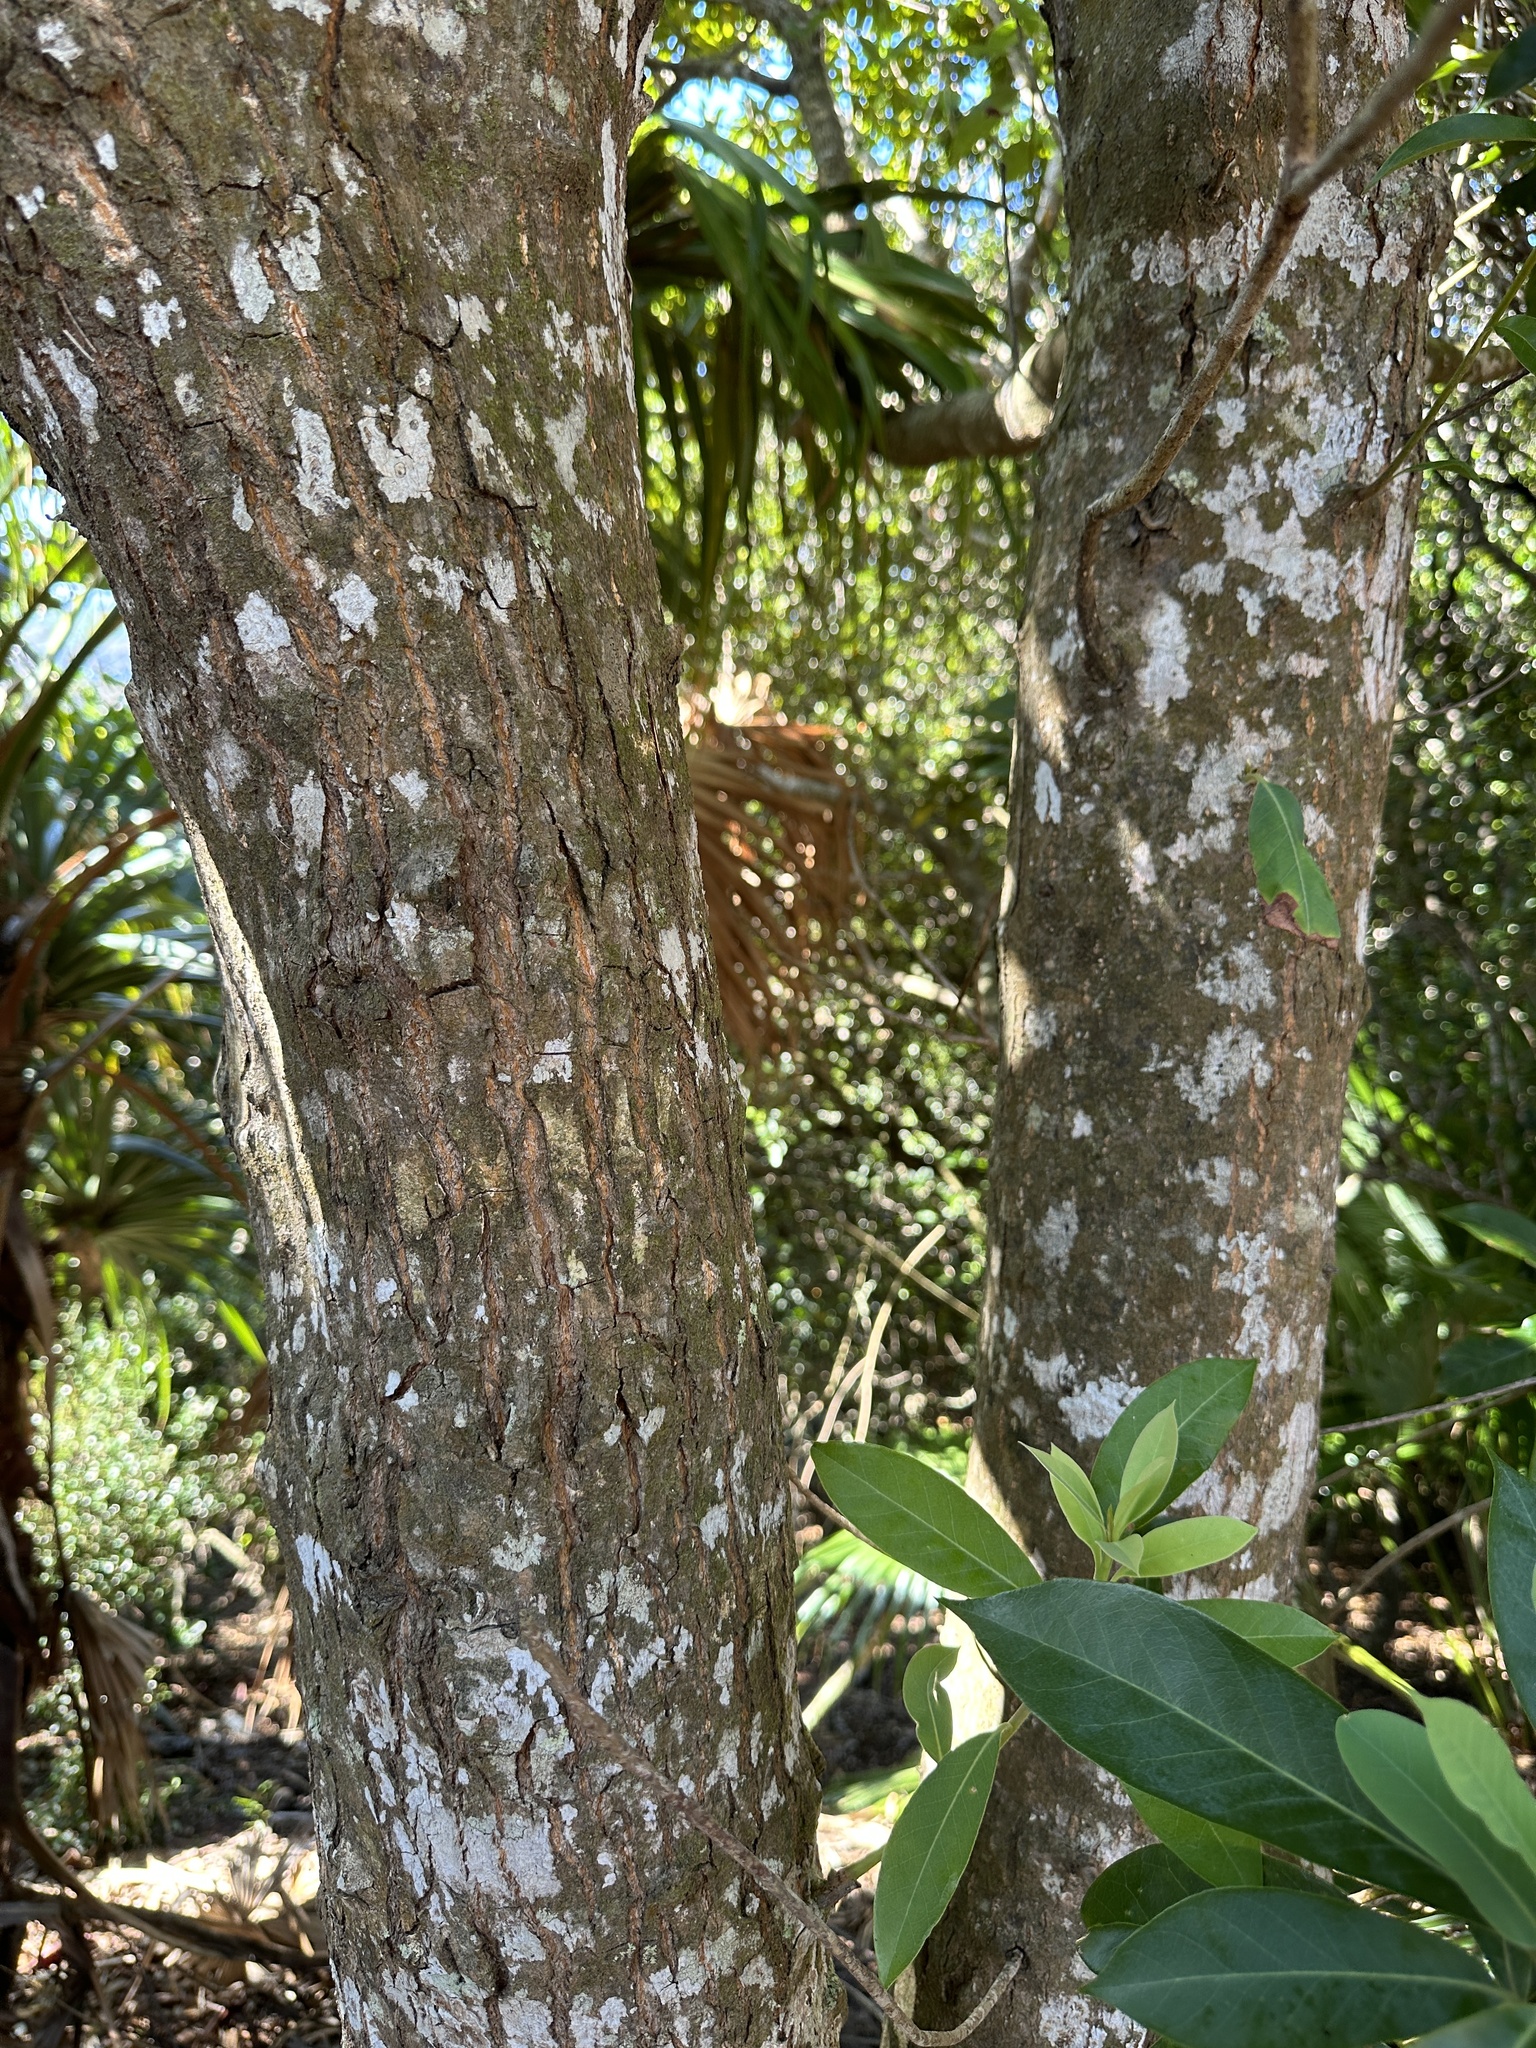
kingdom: Plantae
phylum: Tracheophyta
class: Magnoliopsida
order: Ericales
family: Theaceae
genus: Schima
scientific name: Schima mertensiana
